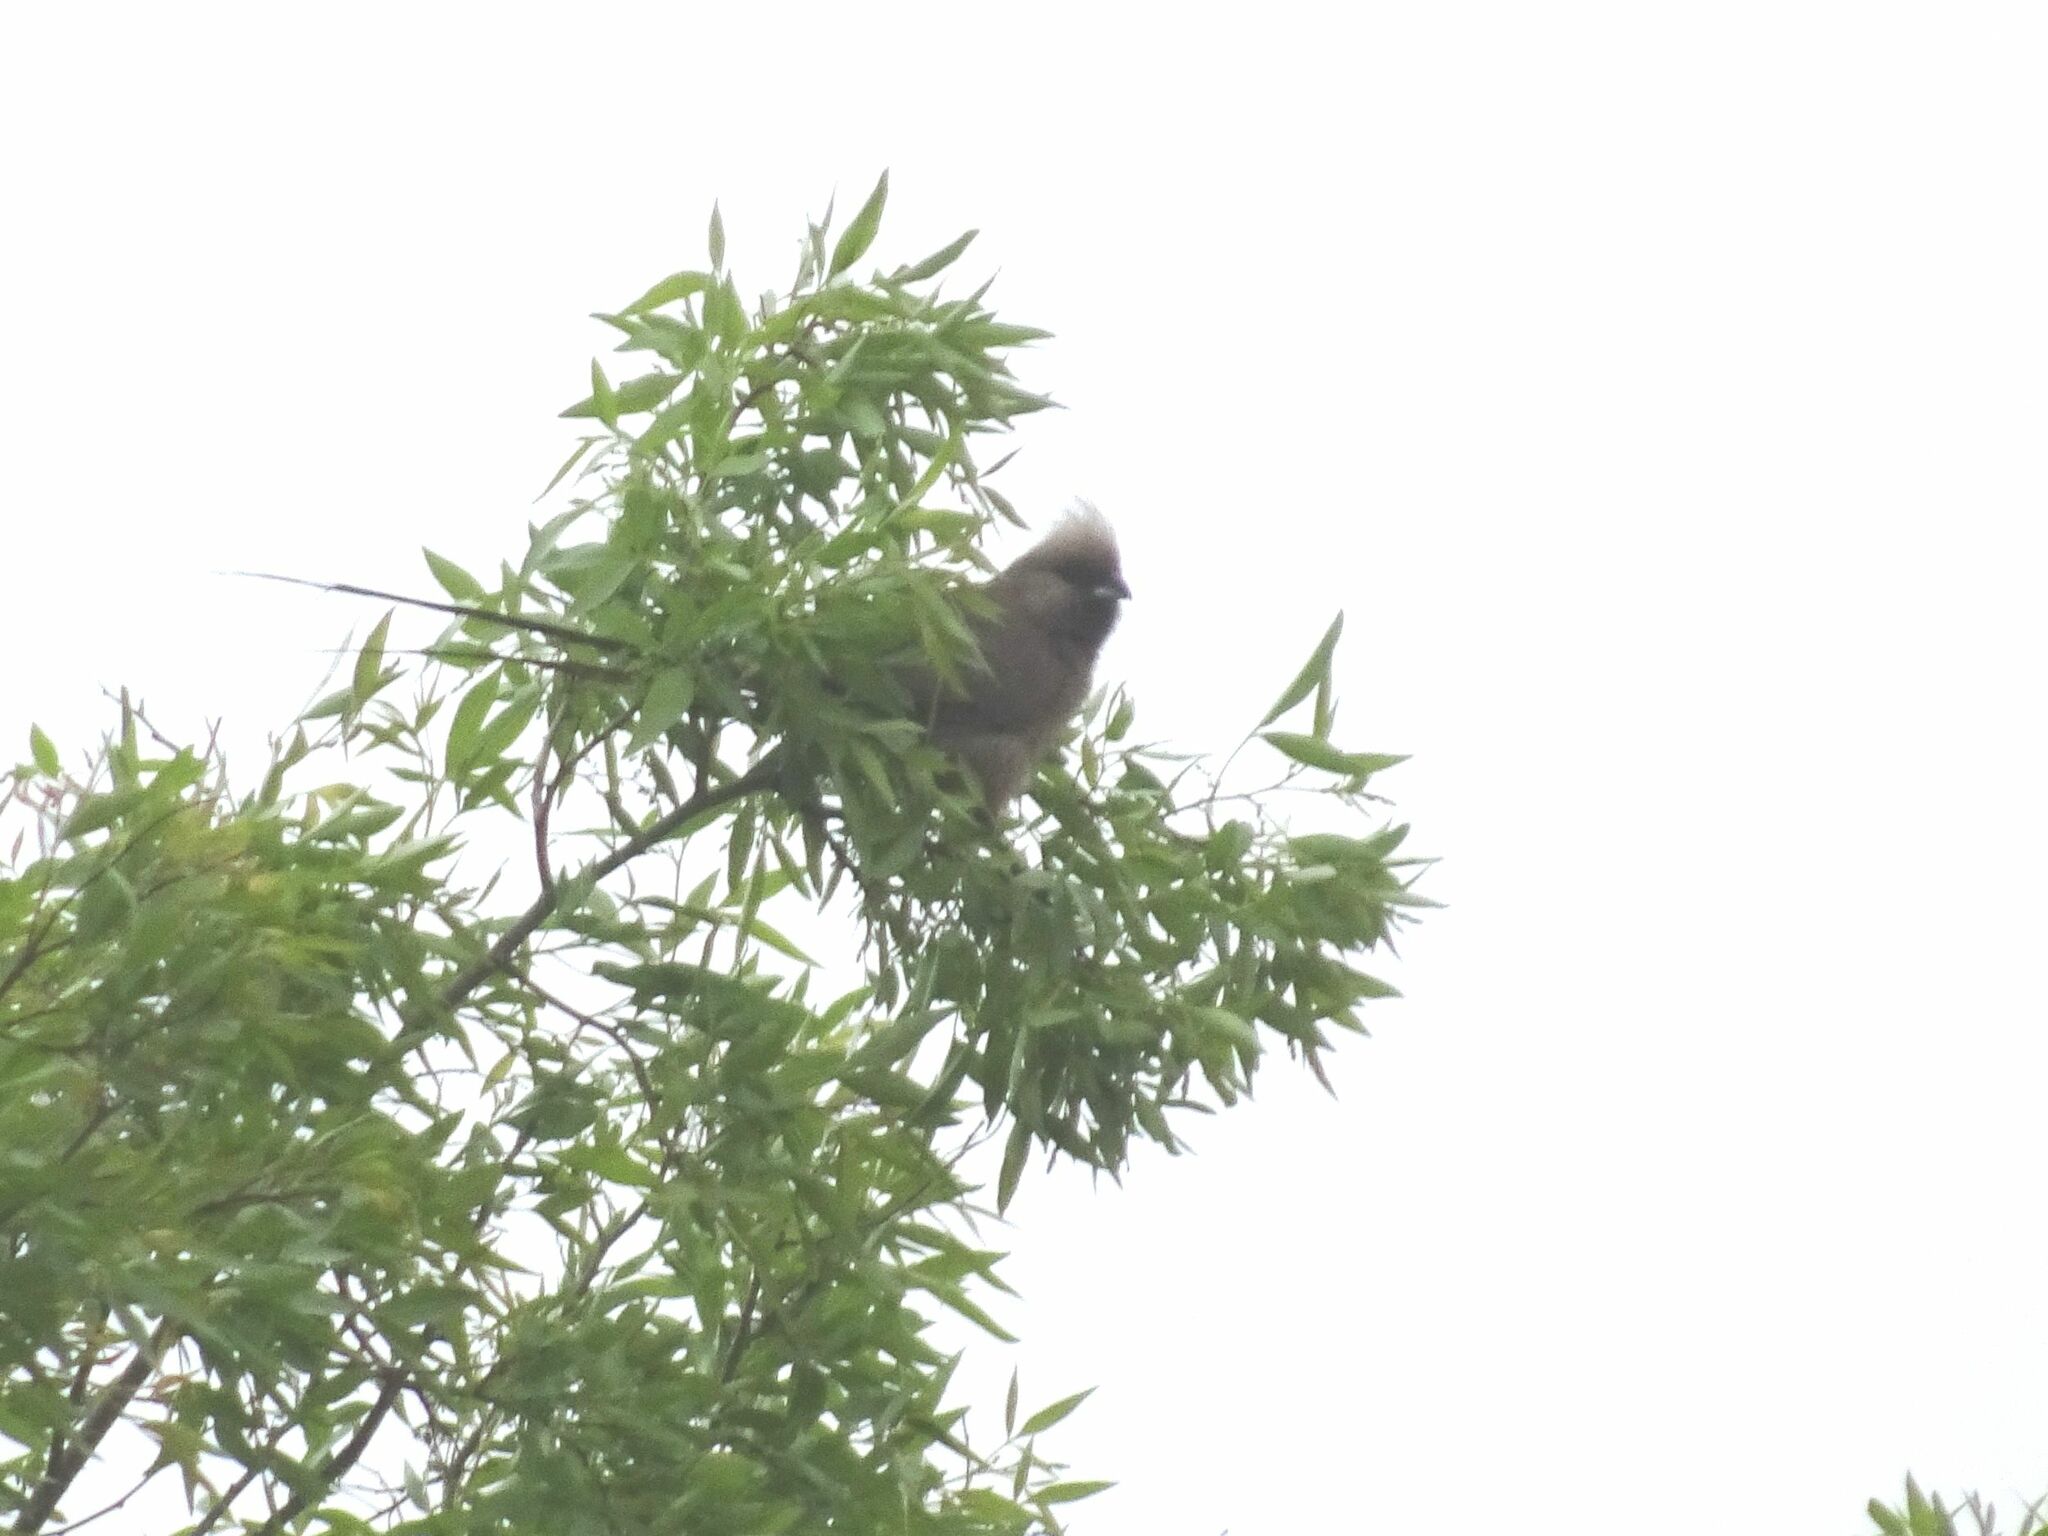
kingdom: Animalia
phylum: Chordata
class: Aves
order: Coliiformes
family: Coliidae
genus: Colius
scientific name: Colius striatus
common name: Speckled mousebird
